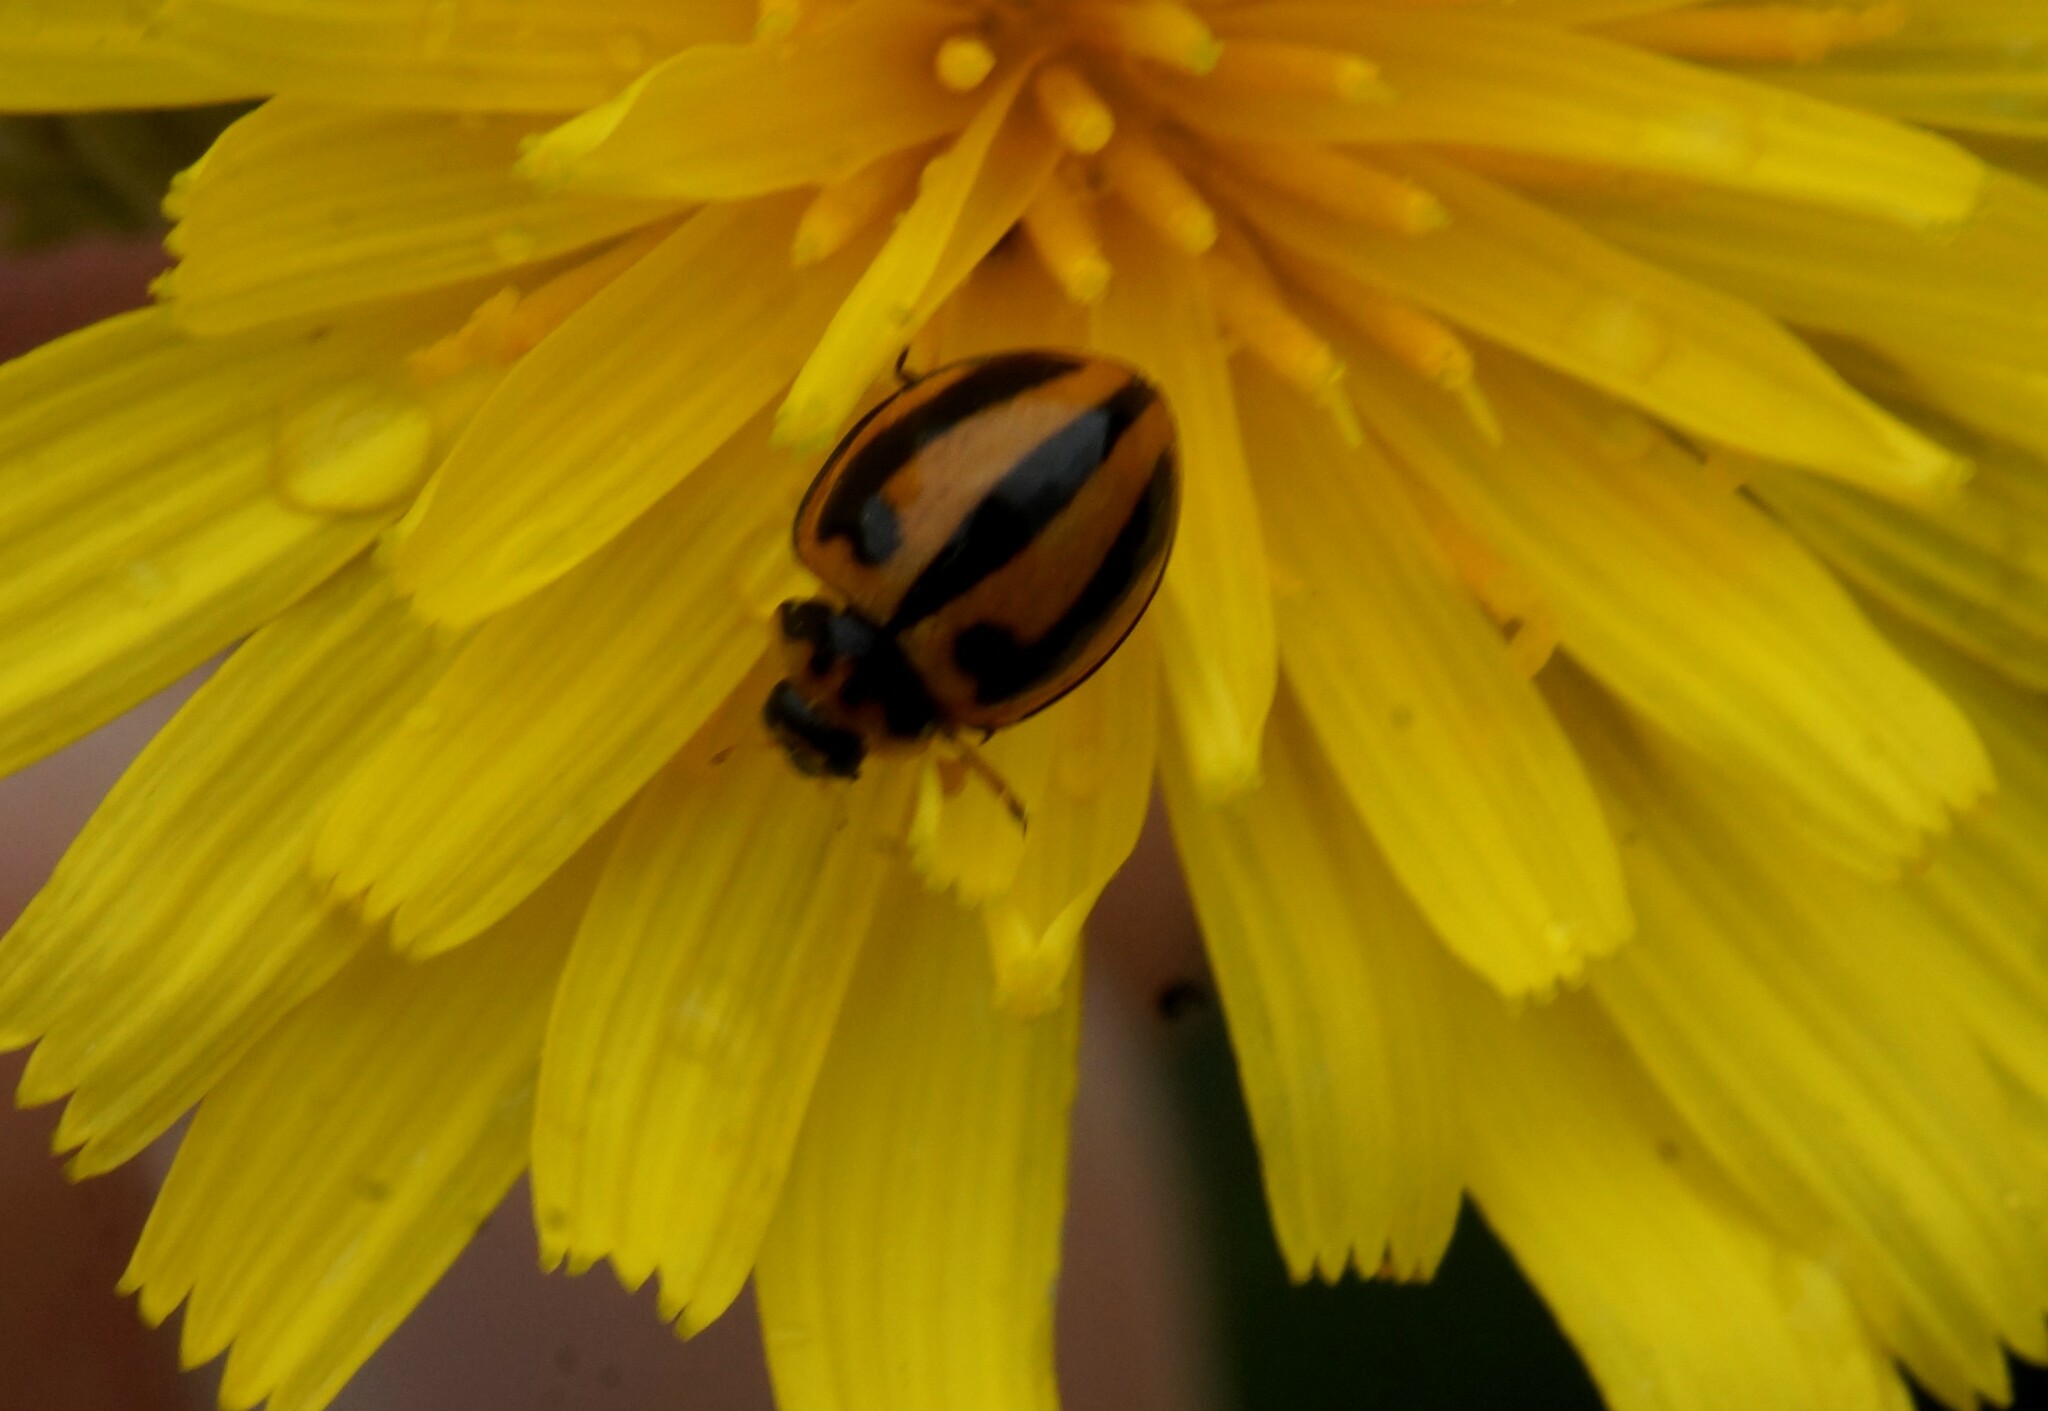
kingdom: Animalia
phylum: Arthropoda
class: Insecta
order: Coleoptera
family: Coccinellidae
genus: Micraspis
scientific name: Micraspis frenata
